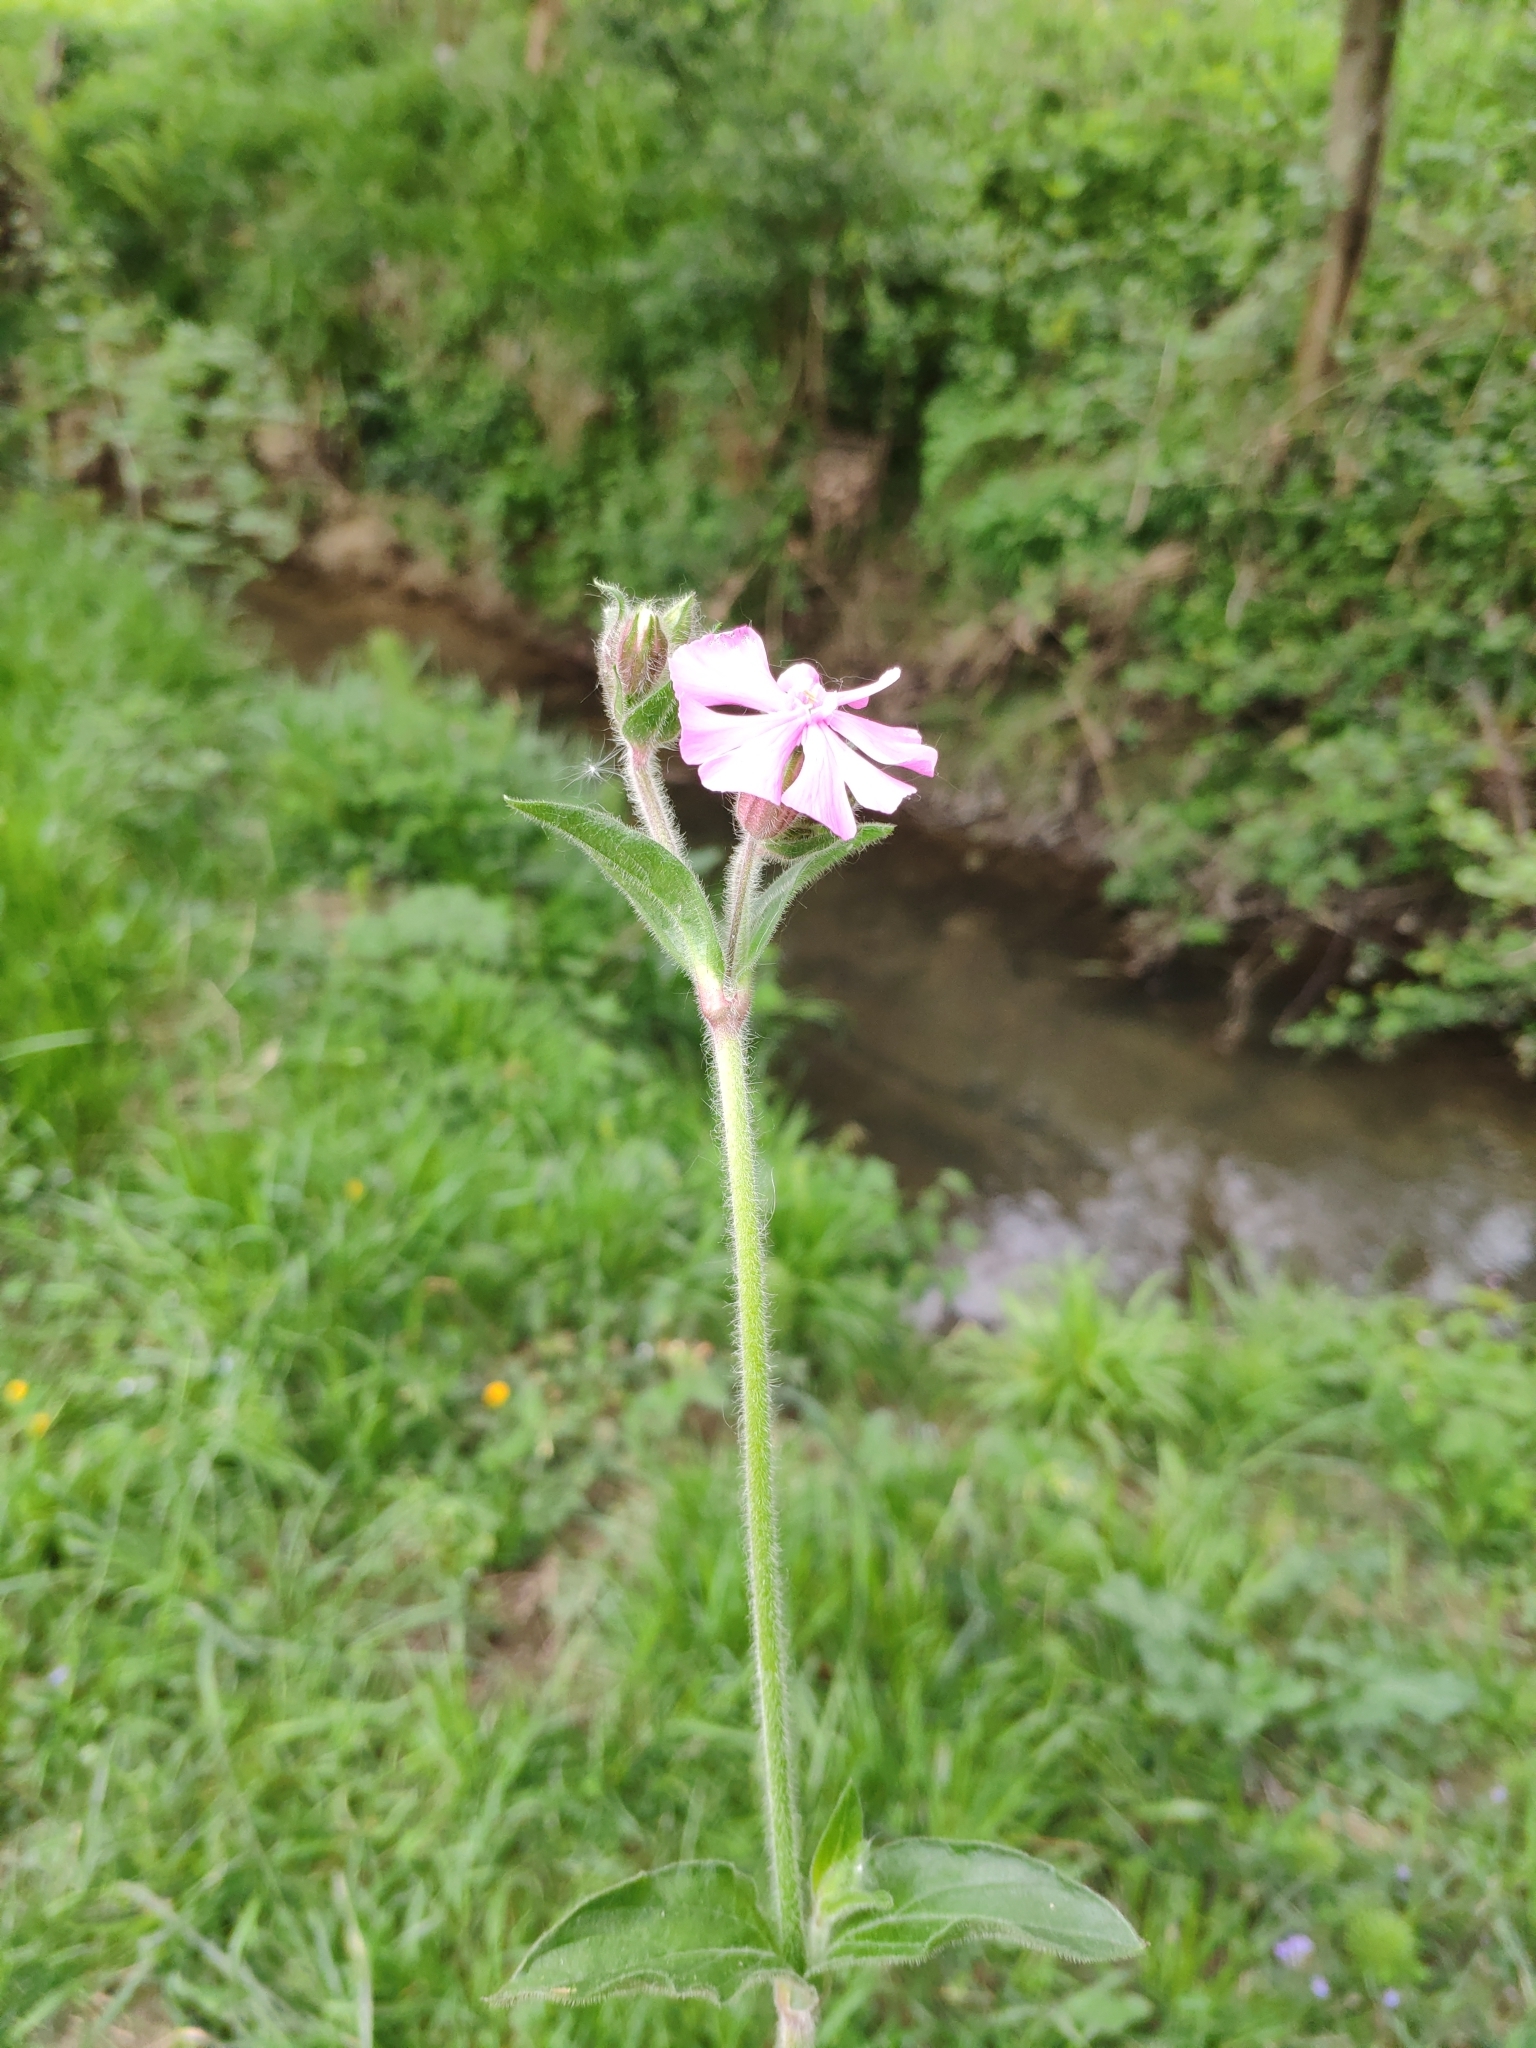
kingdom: Plantae
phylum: Tracheophyta
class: Magnoliopsida
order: Caryophyllales
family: Caryophyllaceae
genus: Silene
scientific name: Silene dioica
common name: Red campion
